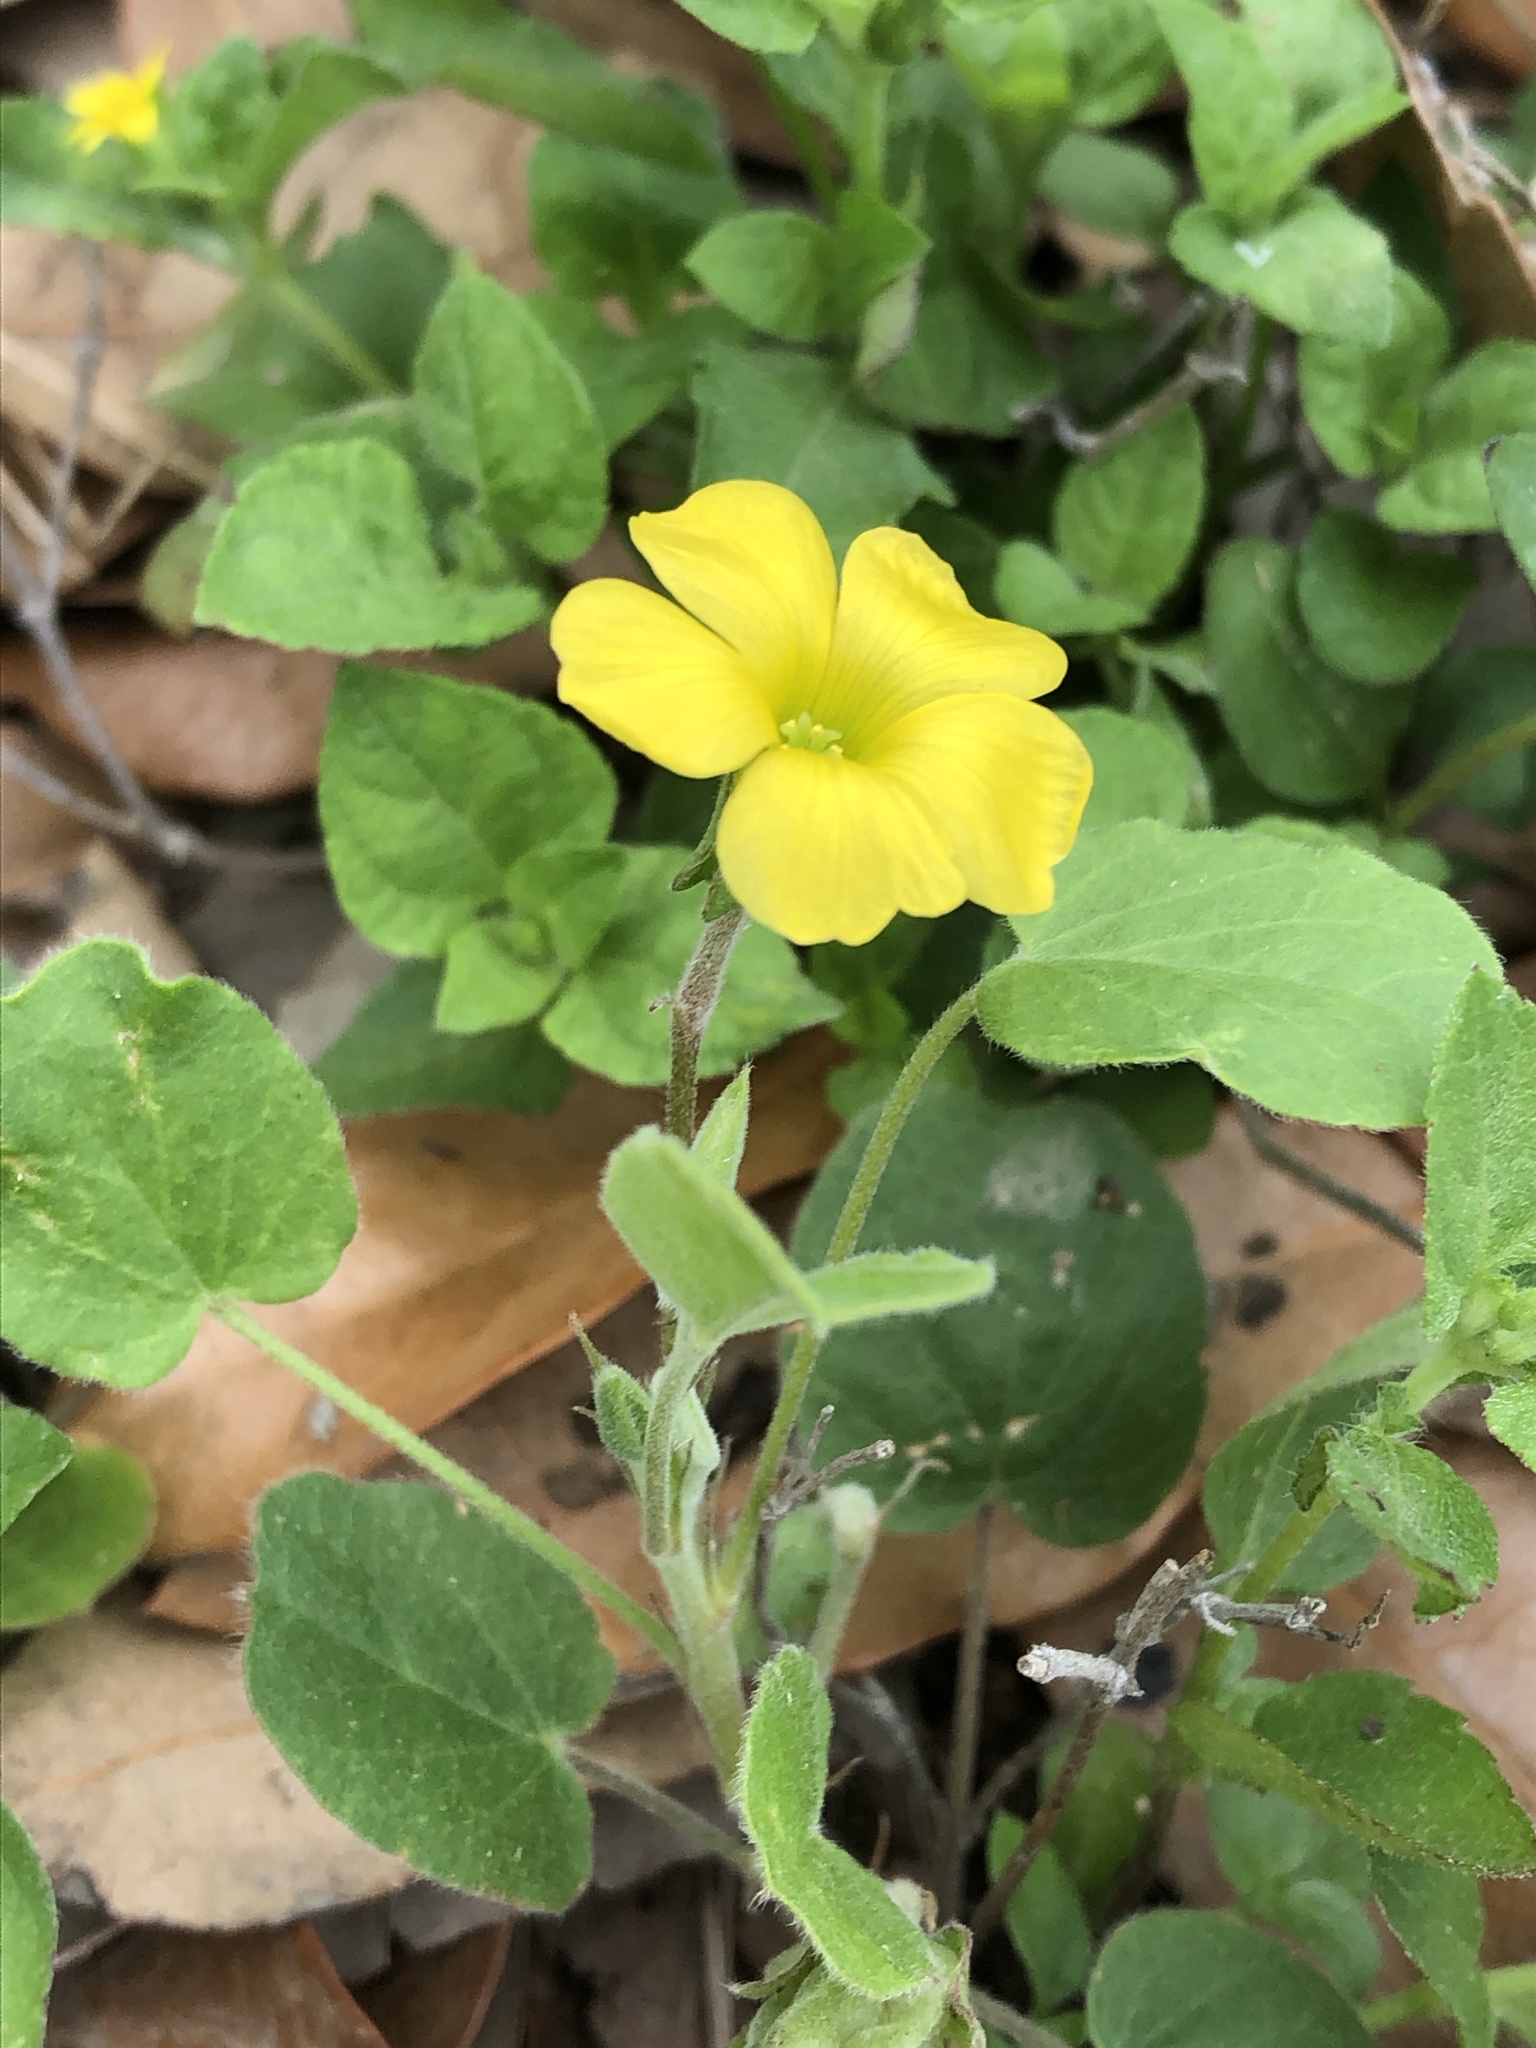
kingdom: Plantae
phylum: Tracheophyta
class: Magnoliopsida
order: Oxalidales
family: Oxalidaceae
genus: Oxalis
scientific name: Oxalis dichondrifolia
